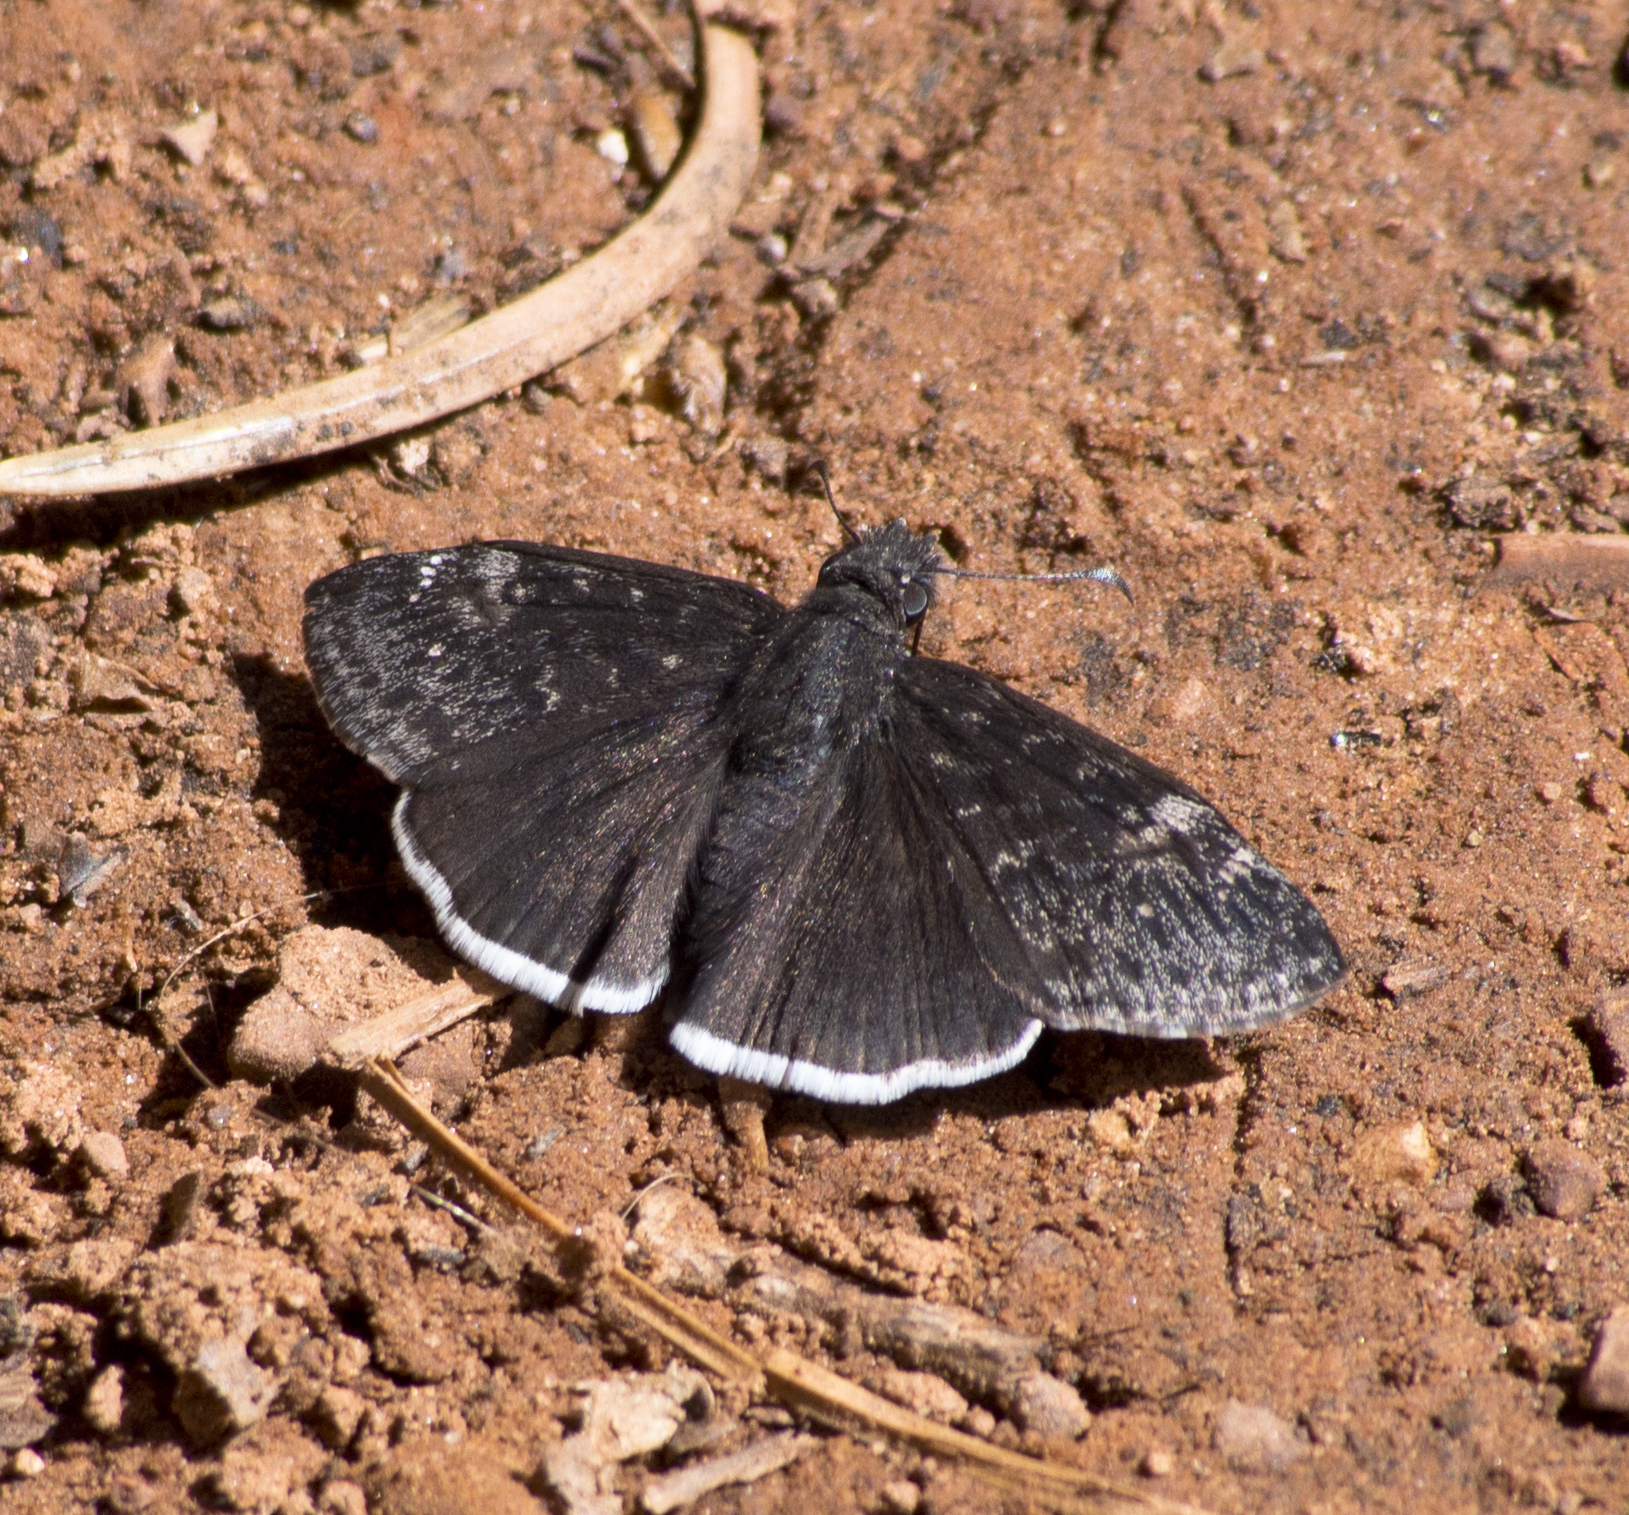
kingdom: Animalia
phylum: Arthropoda
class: Insecta
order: Lepidoptera
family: Hesperiidae
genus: Erynnis
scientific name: Erynnis funeralis
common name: Funereal duskywing
